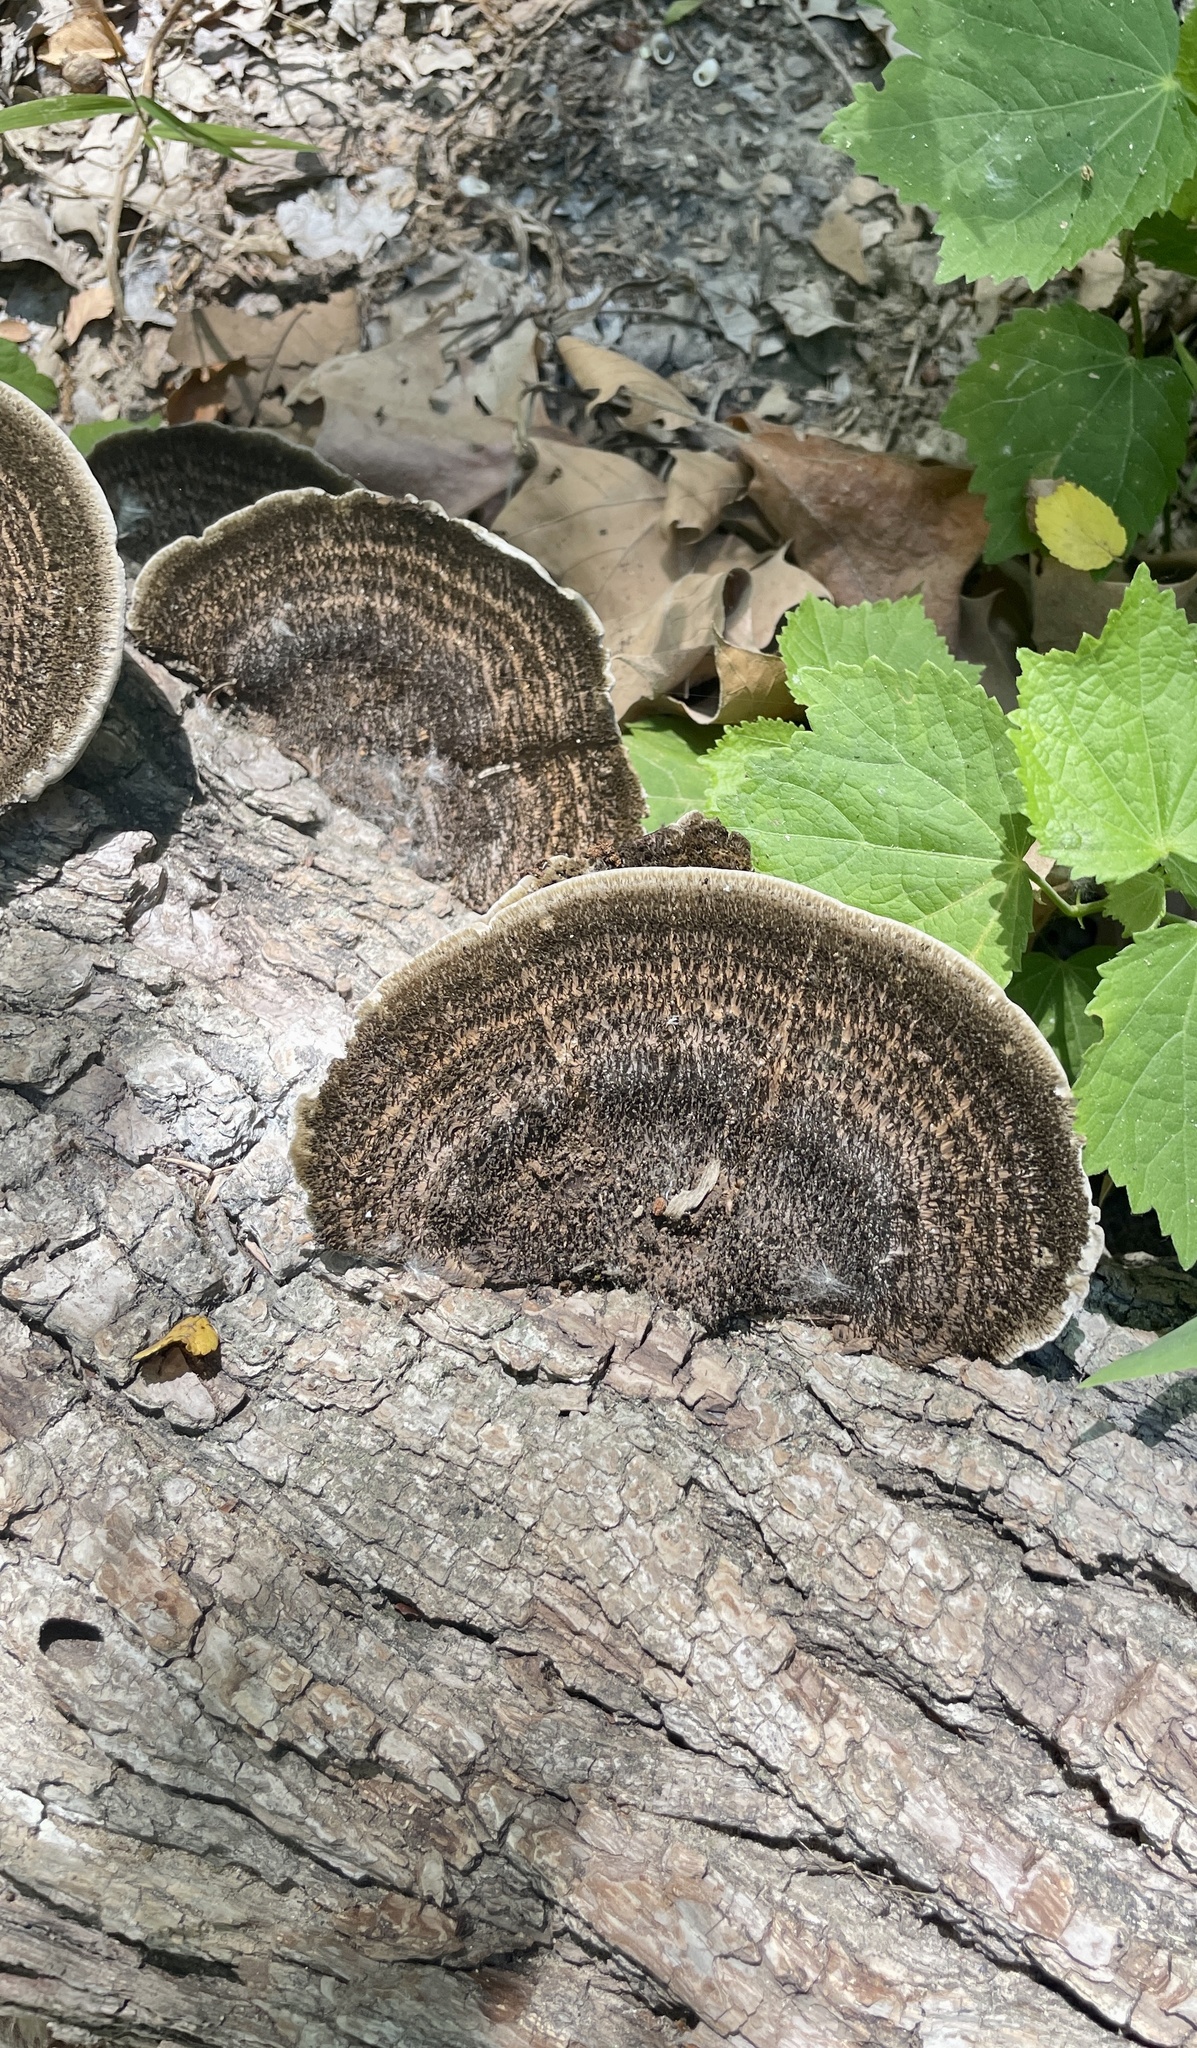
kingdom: Fungi
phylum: Basidiomycota
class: Agaricomycetes
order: Polyporales
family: Cerrenaceae
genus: Cerrena
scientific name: Cerrena hydnoides
